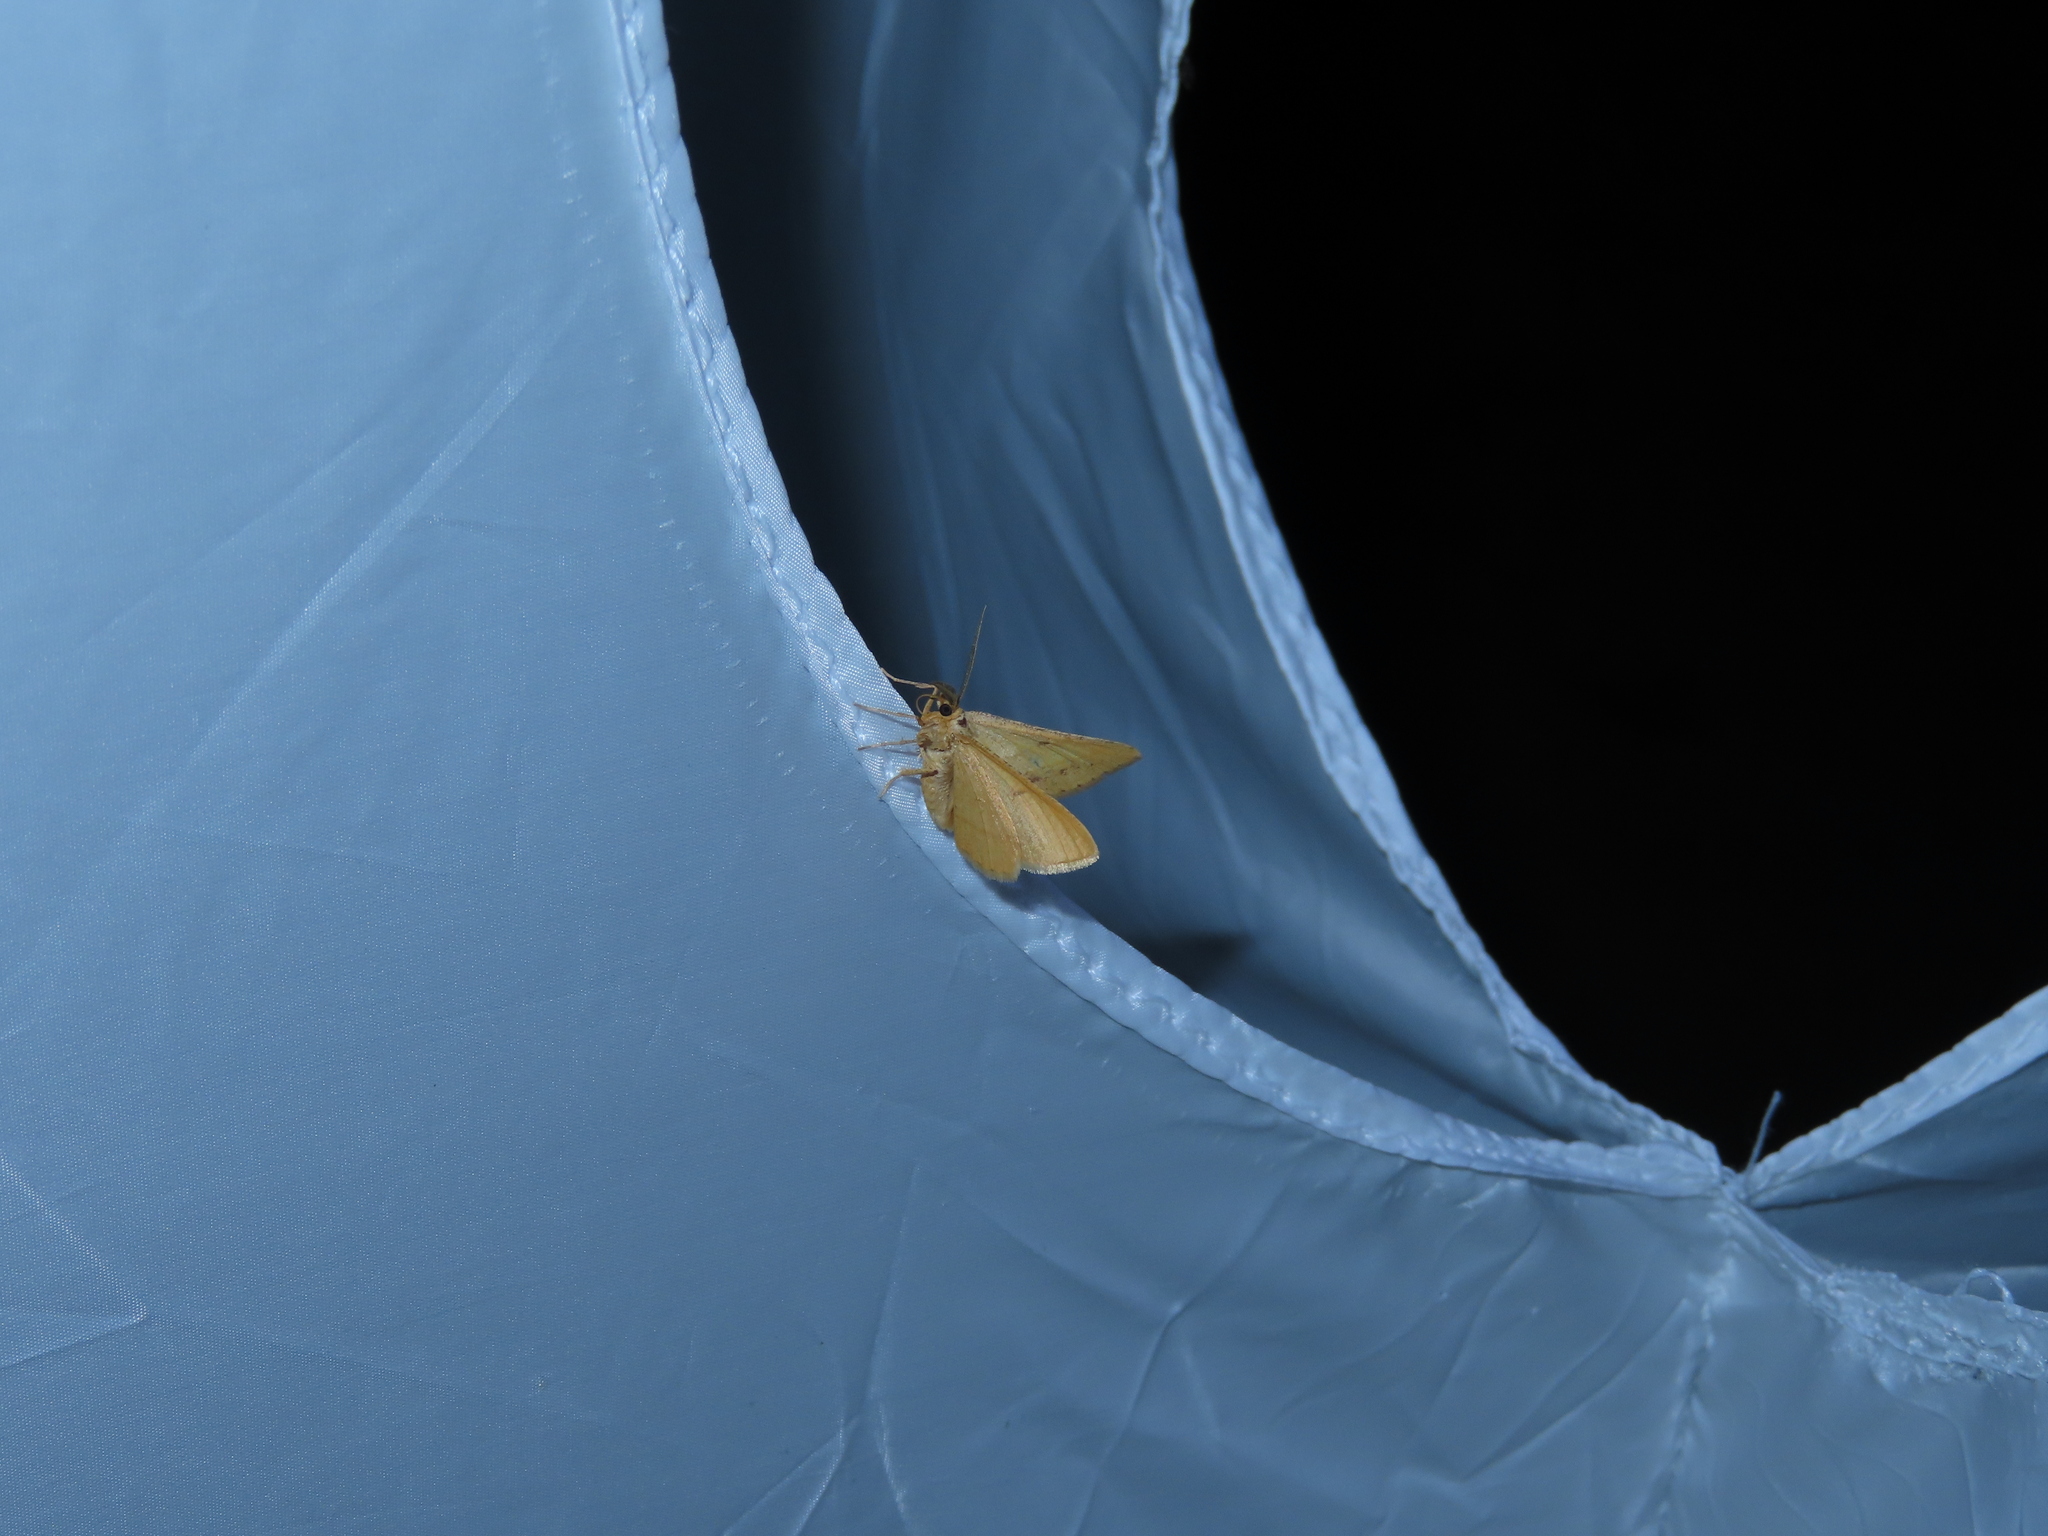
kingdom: Animalia
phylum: Arthropoda
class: Insecta
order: Lepidoptera
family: Geometridae
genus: Tephrina
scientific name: Tephrina arenacearia
